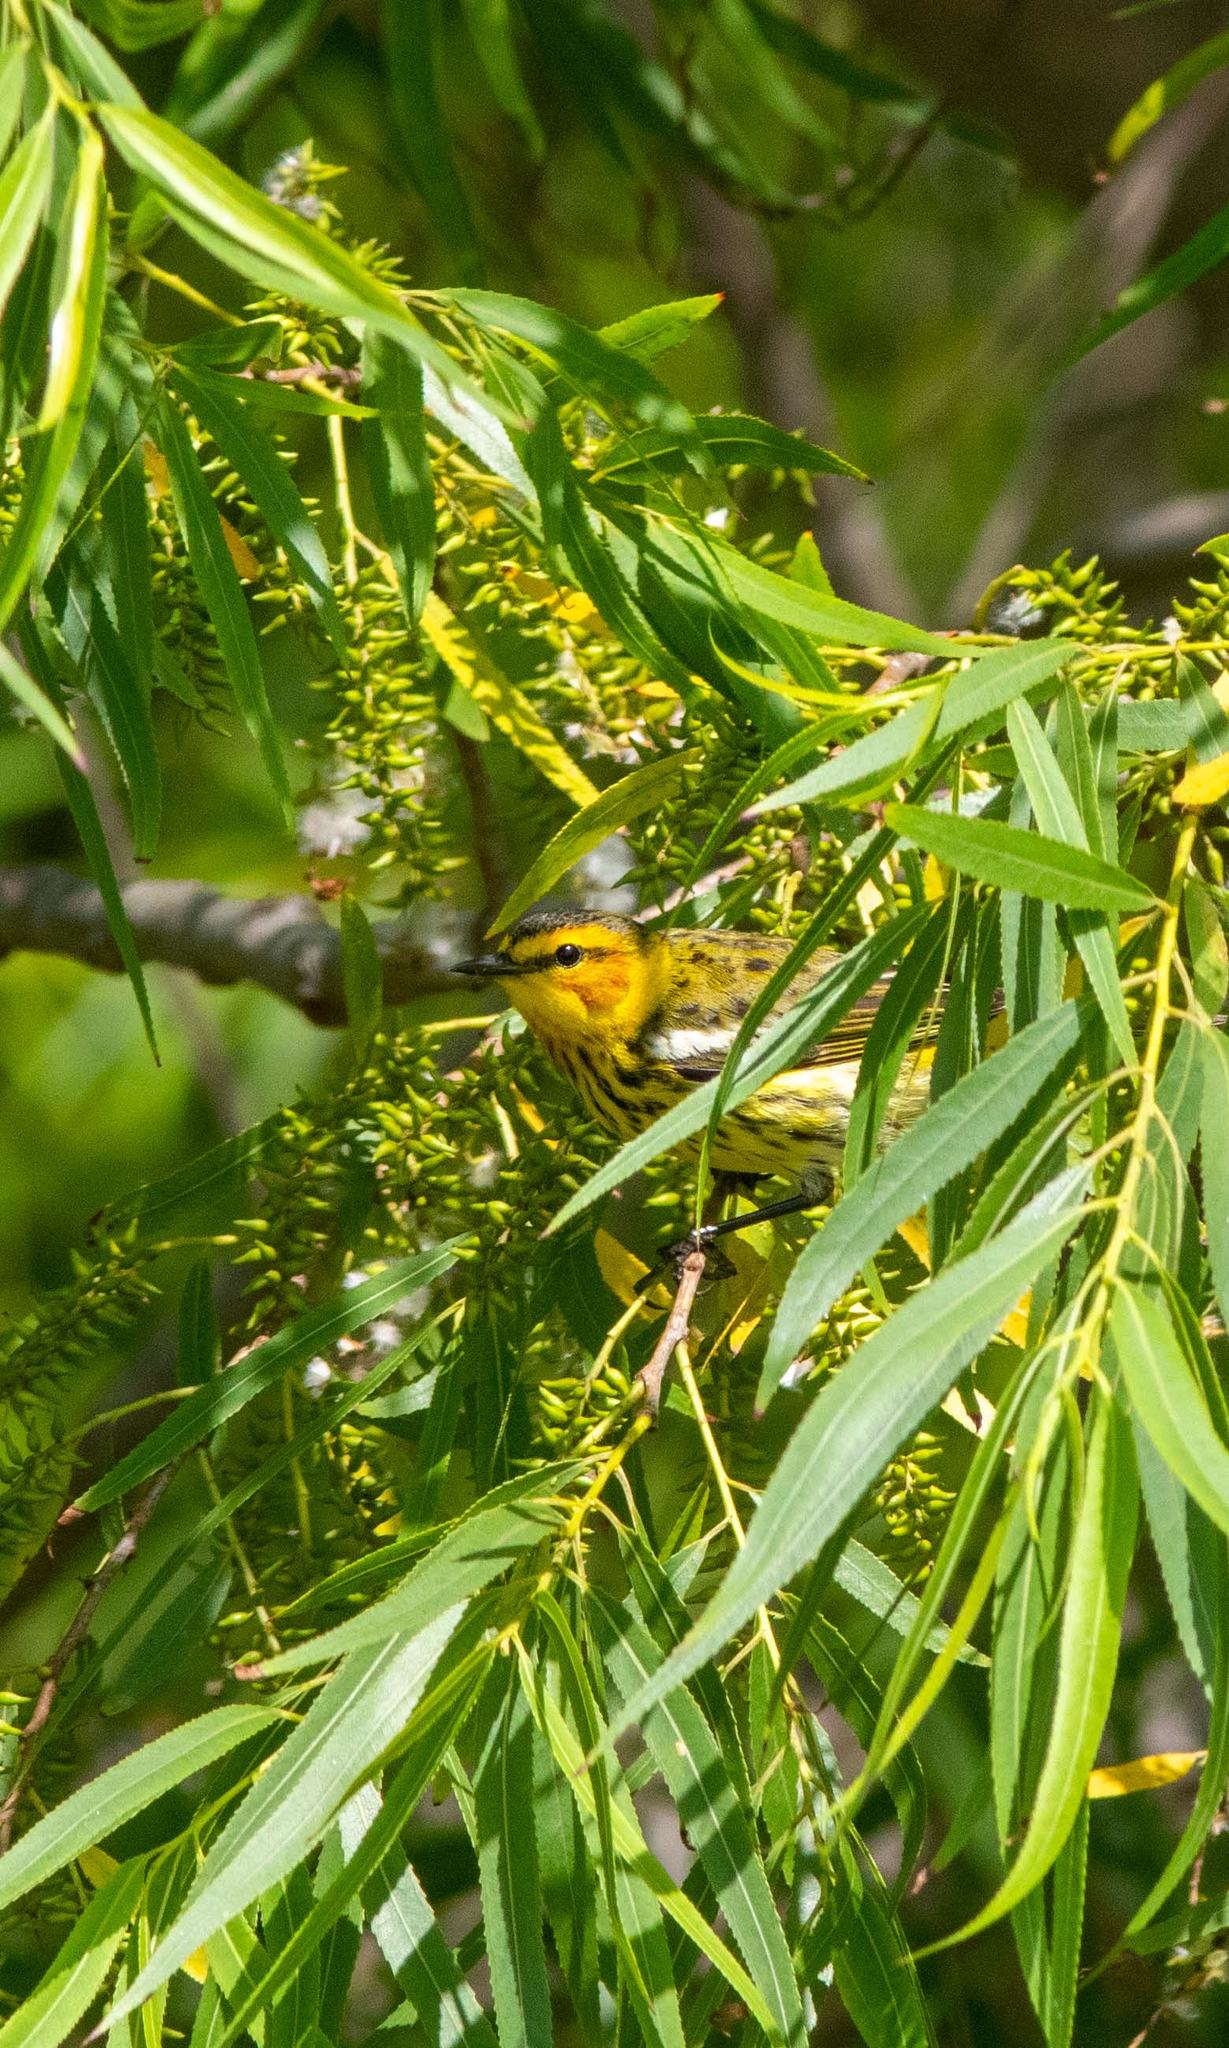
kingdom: Animalia
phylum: Chordata
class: Aves
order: Passeriformes
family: Parulidae
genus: Setophaga
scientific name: Setophaga tigrina
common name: Cape may warbler
